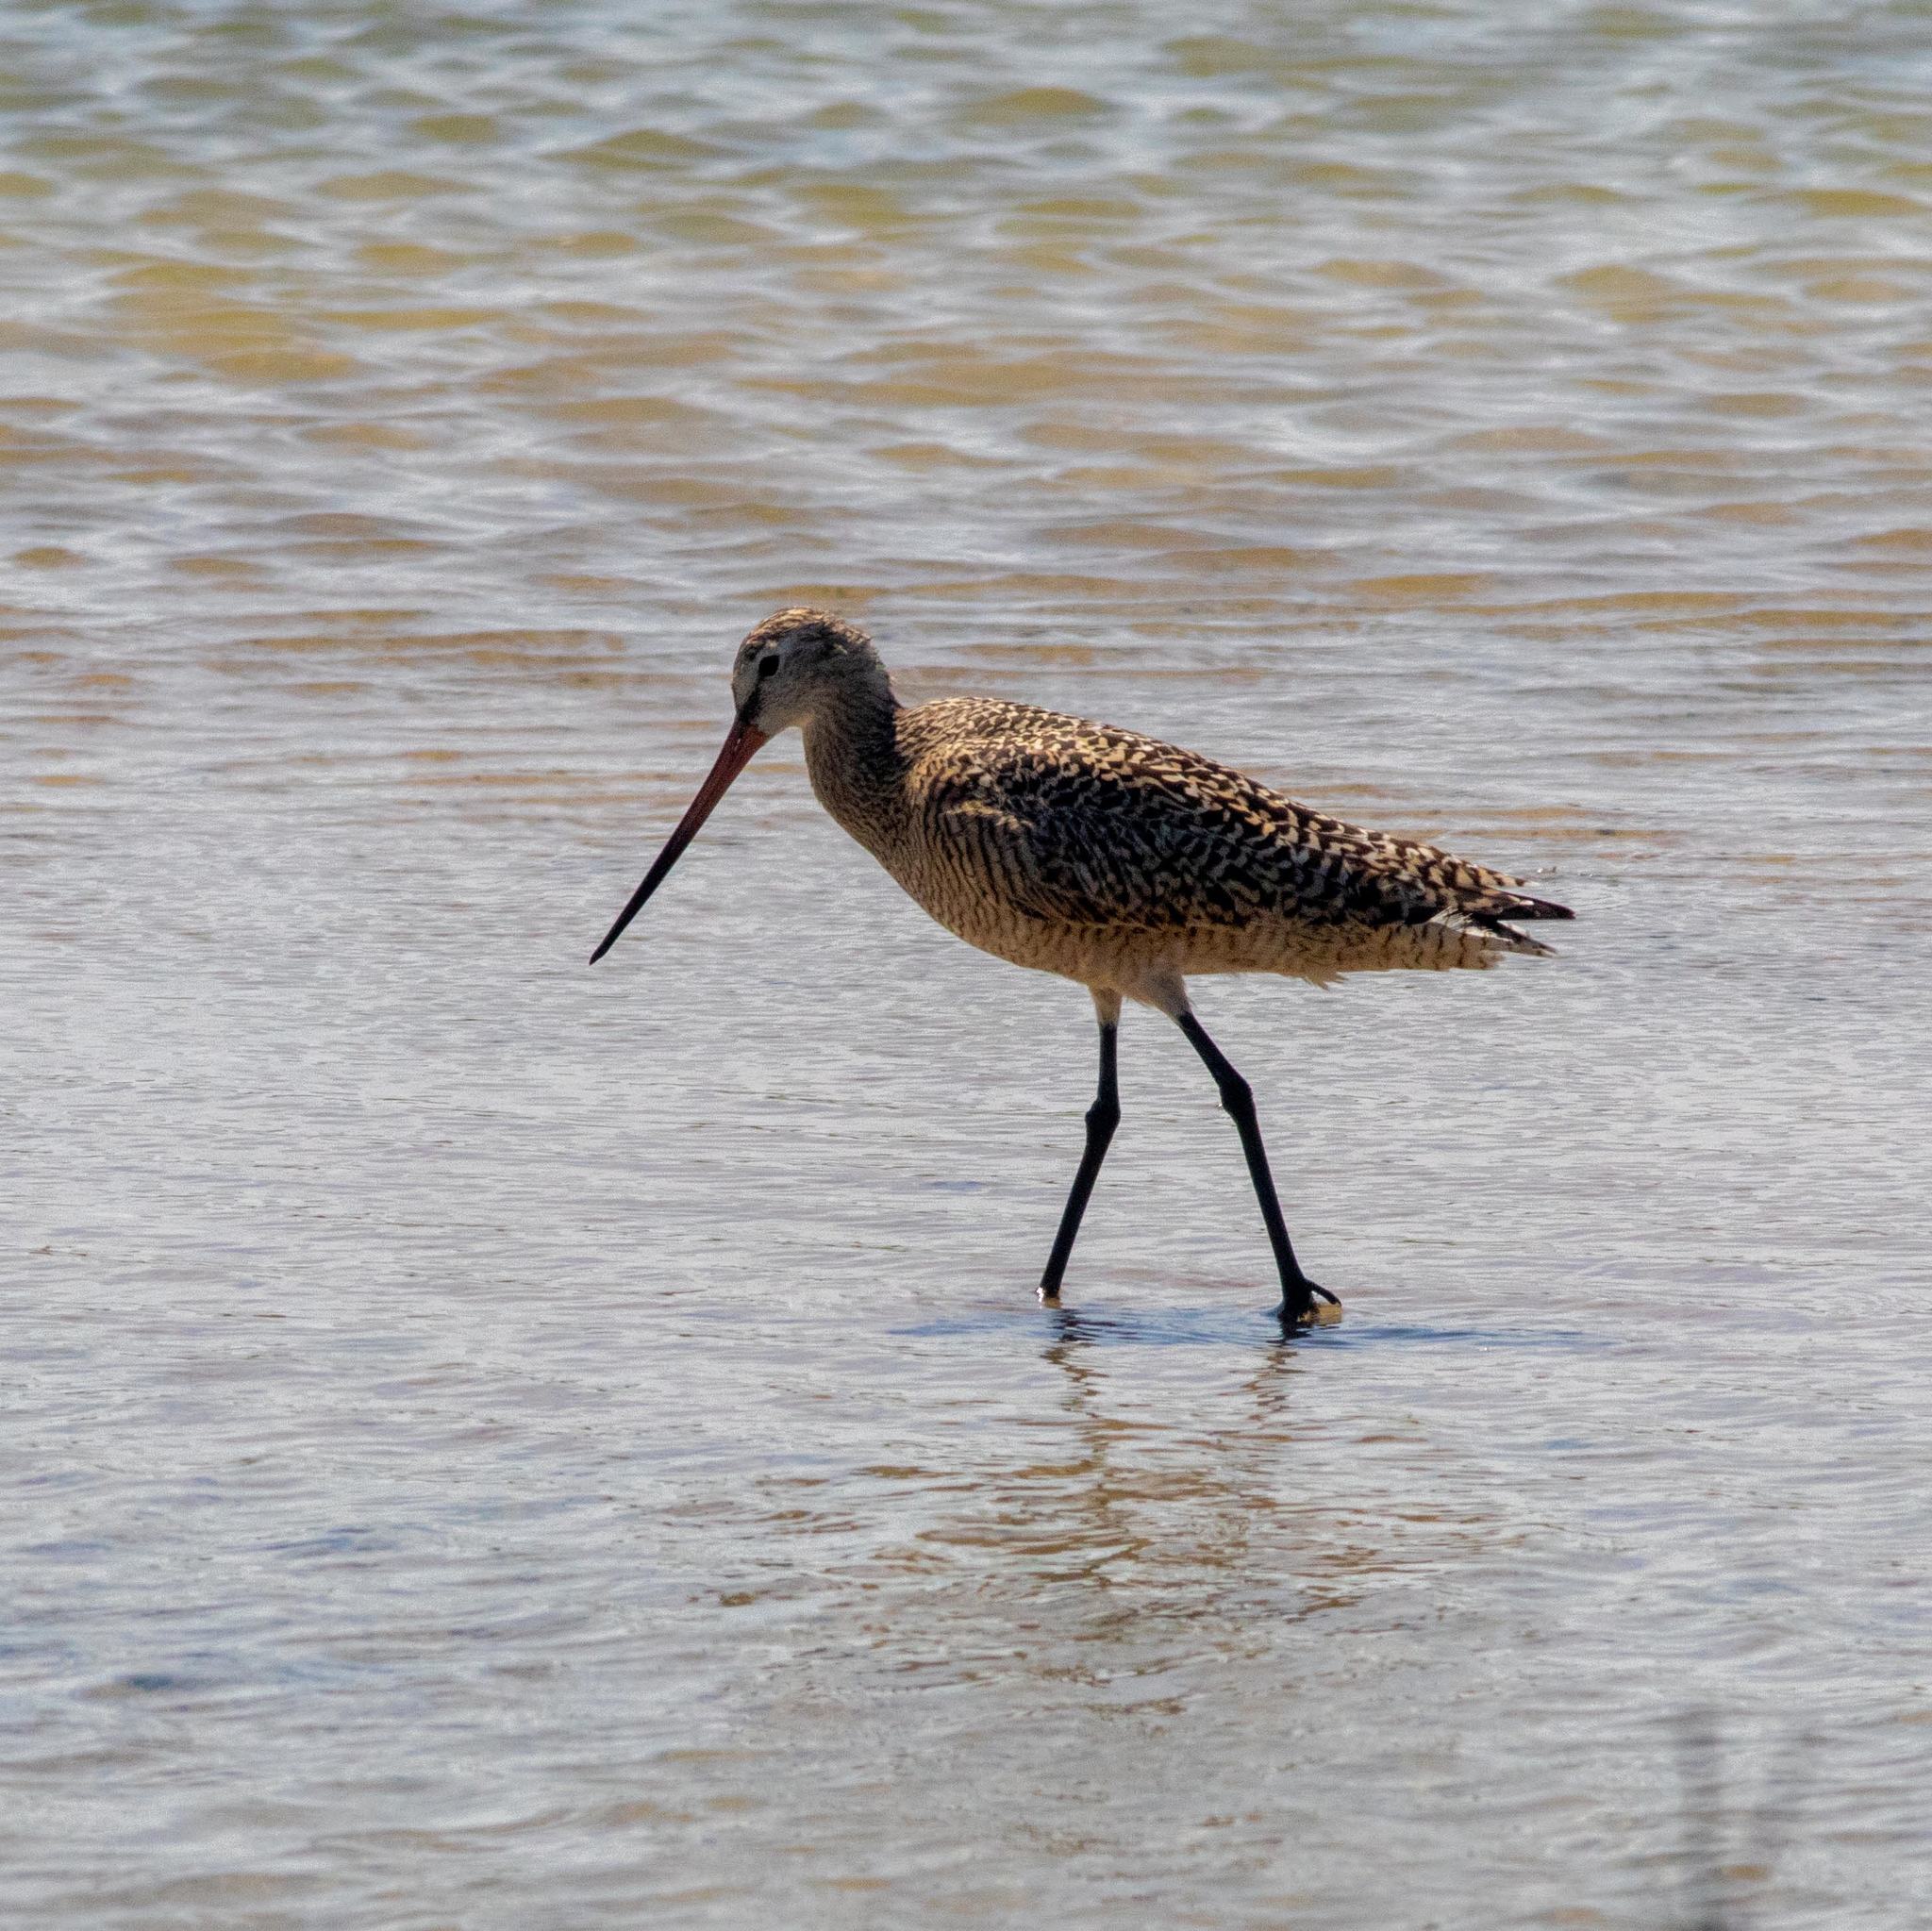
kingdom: Animalia
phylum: Chordata
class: Aves
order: Charadriiformes
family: Scolopacidae
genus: Limosa
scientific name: Limosa fedoa
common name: Marbled godwit
